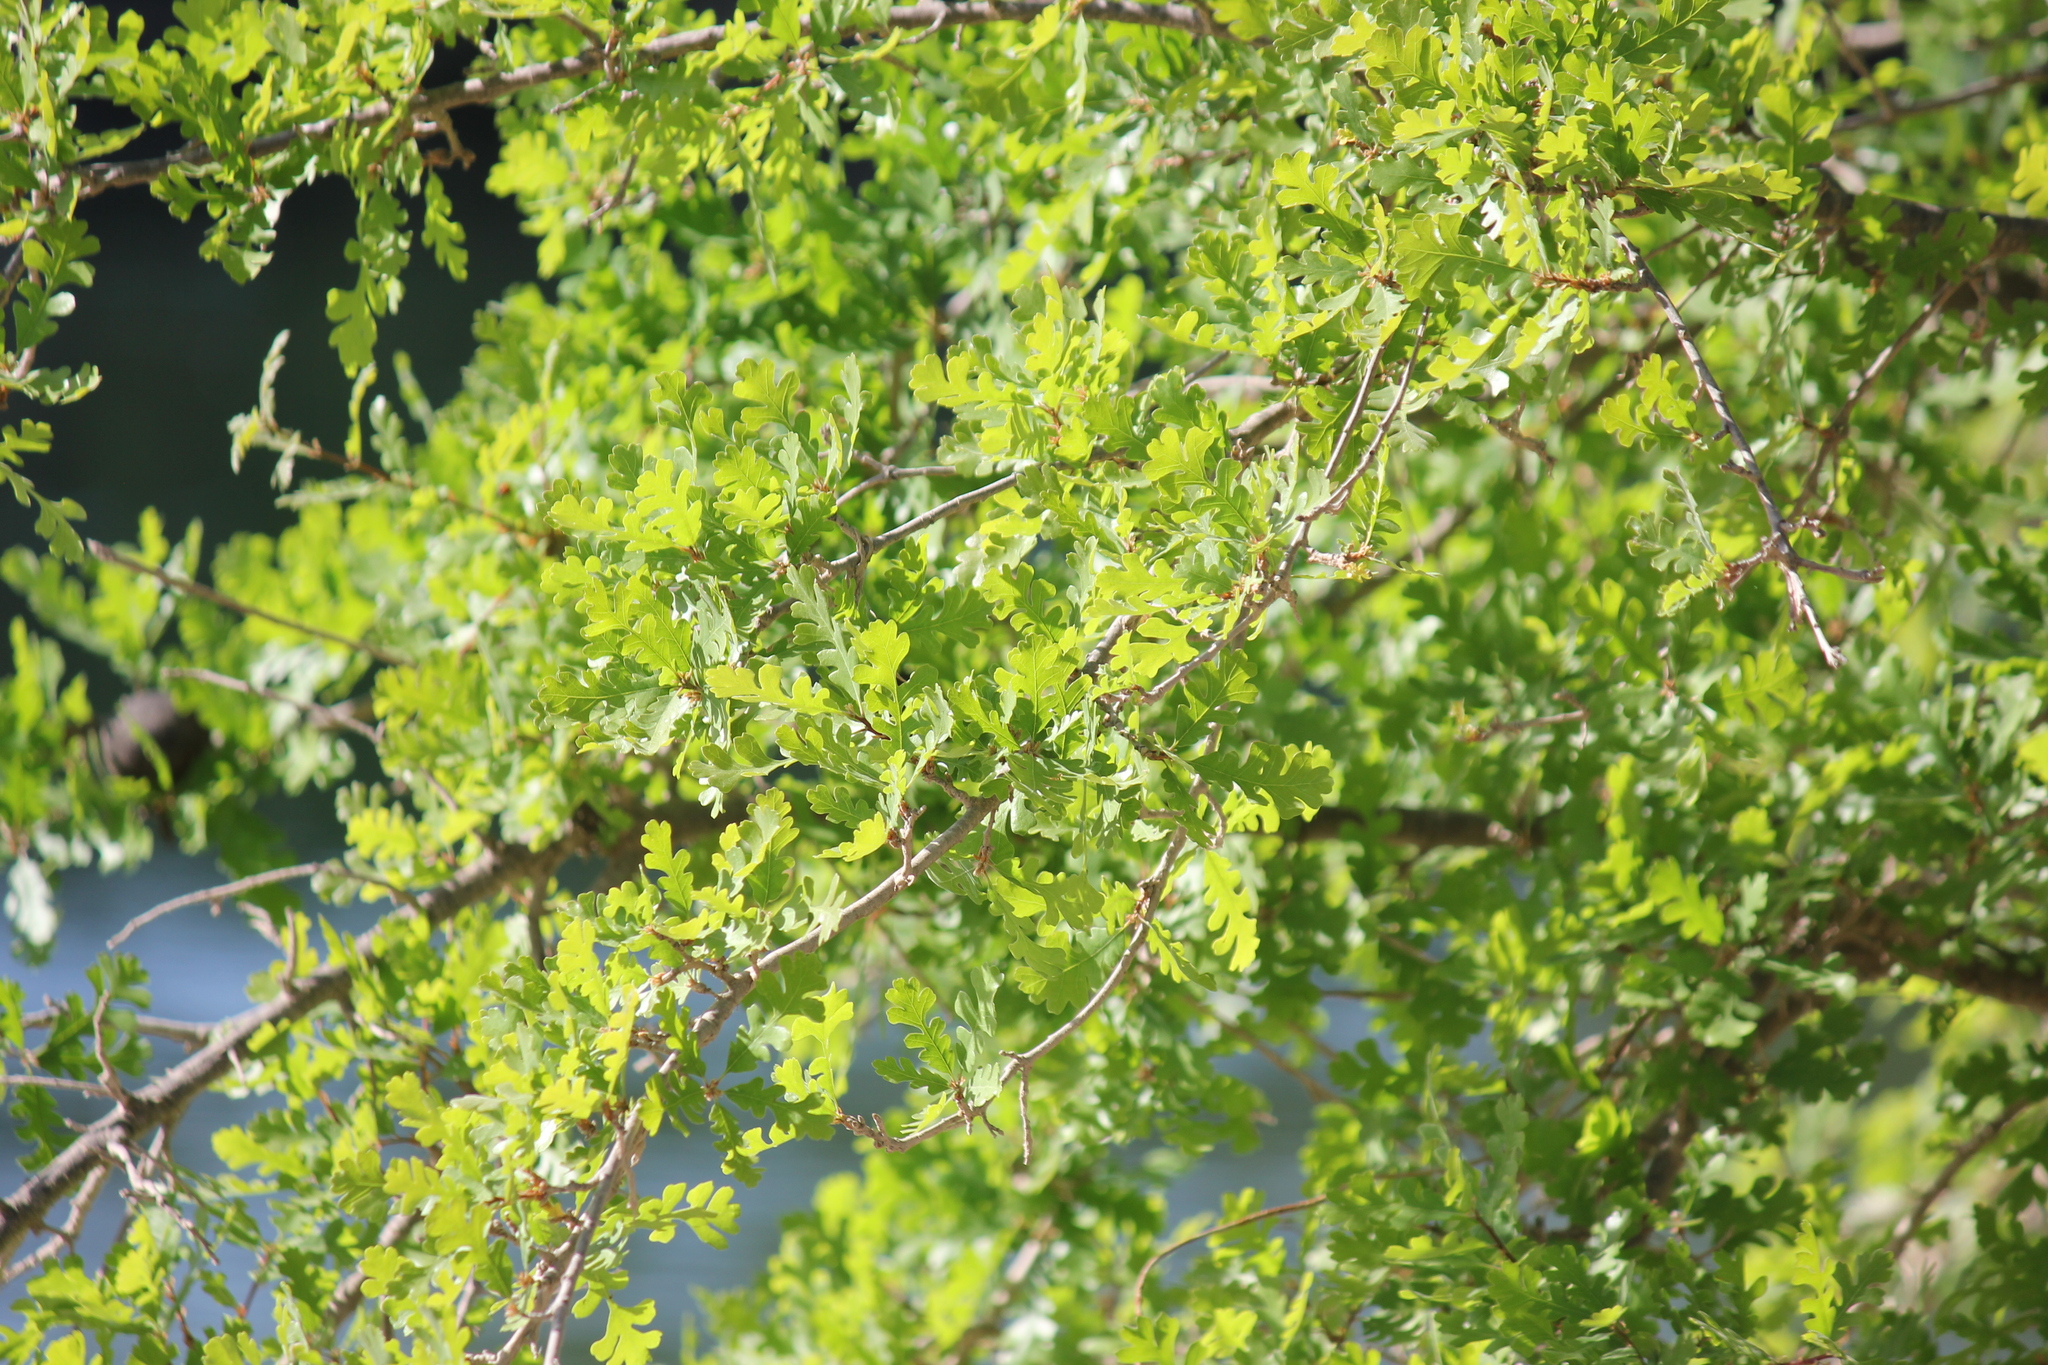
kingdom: Plantae
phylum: Tracheophyta
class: Magnoliopsida
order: Fagales
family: Fagaceae
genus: Quercus
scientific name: Quercus lobata
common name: Valley oak
